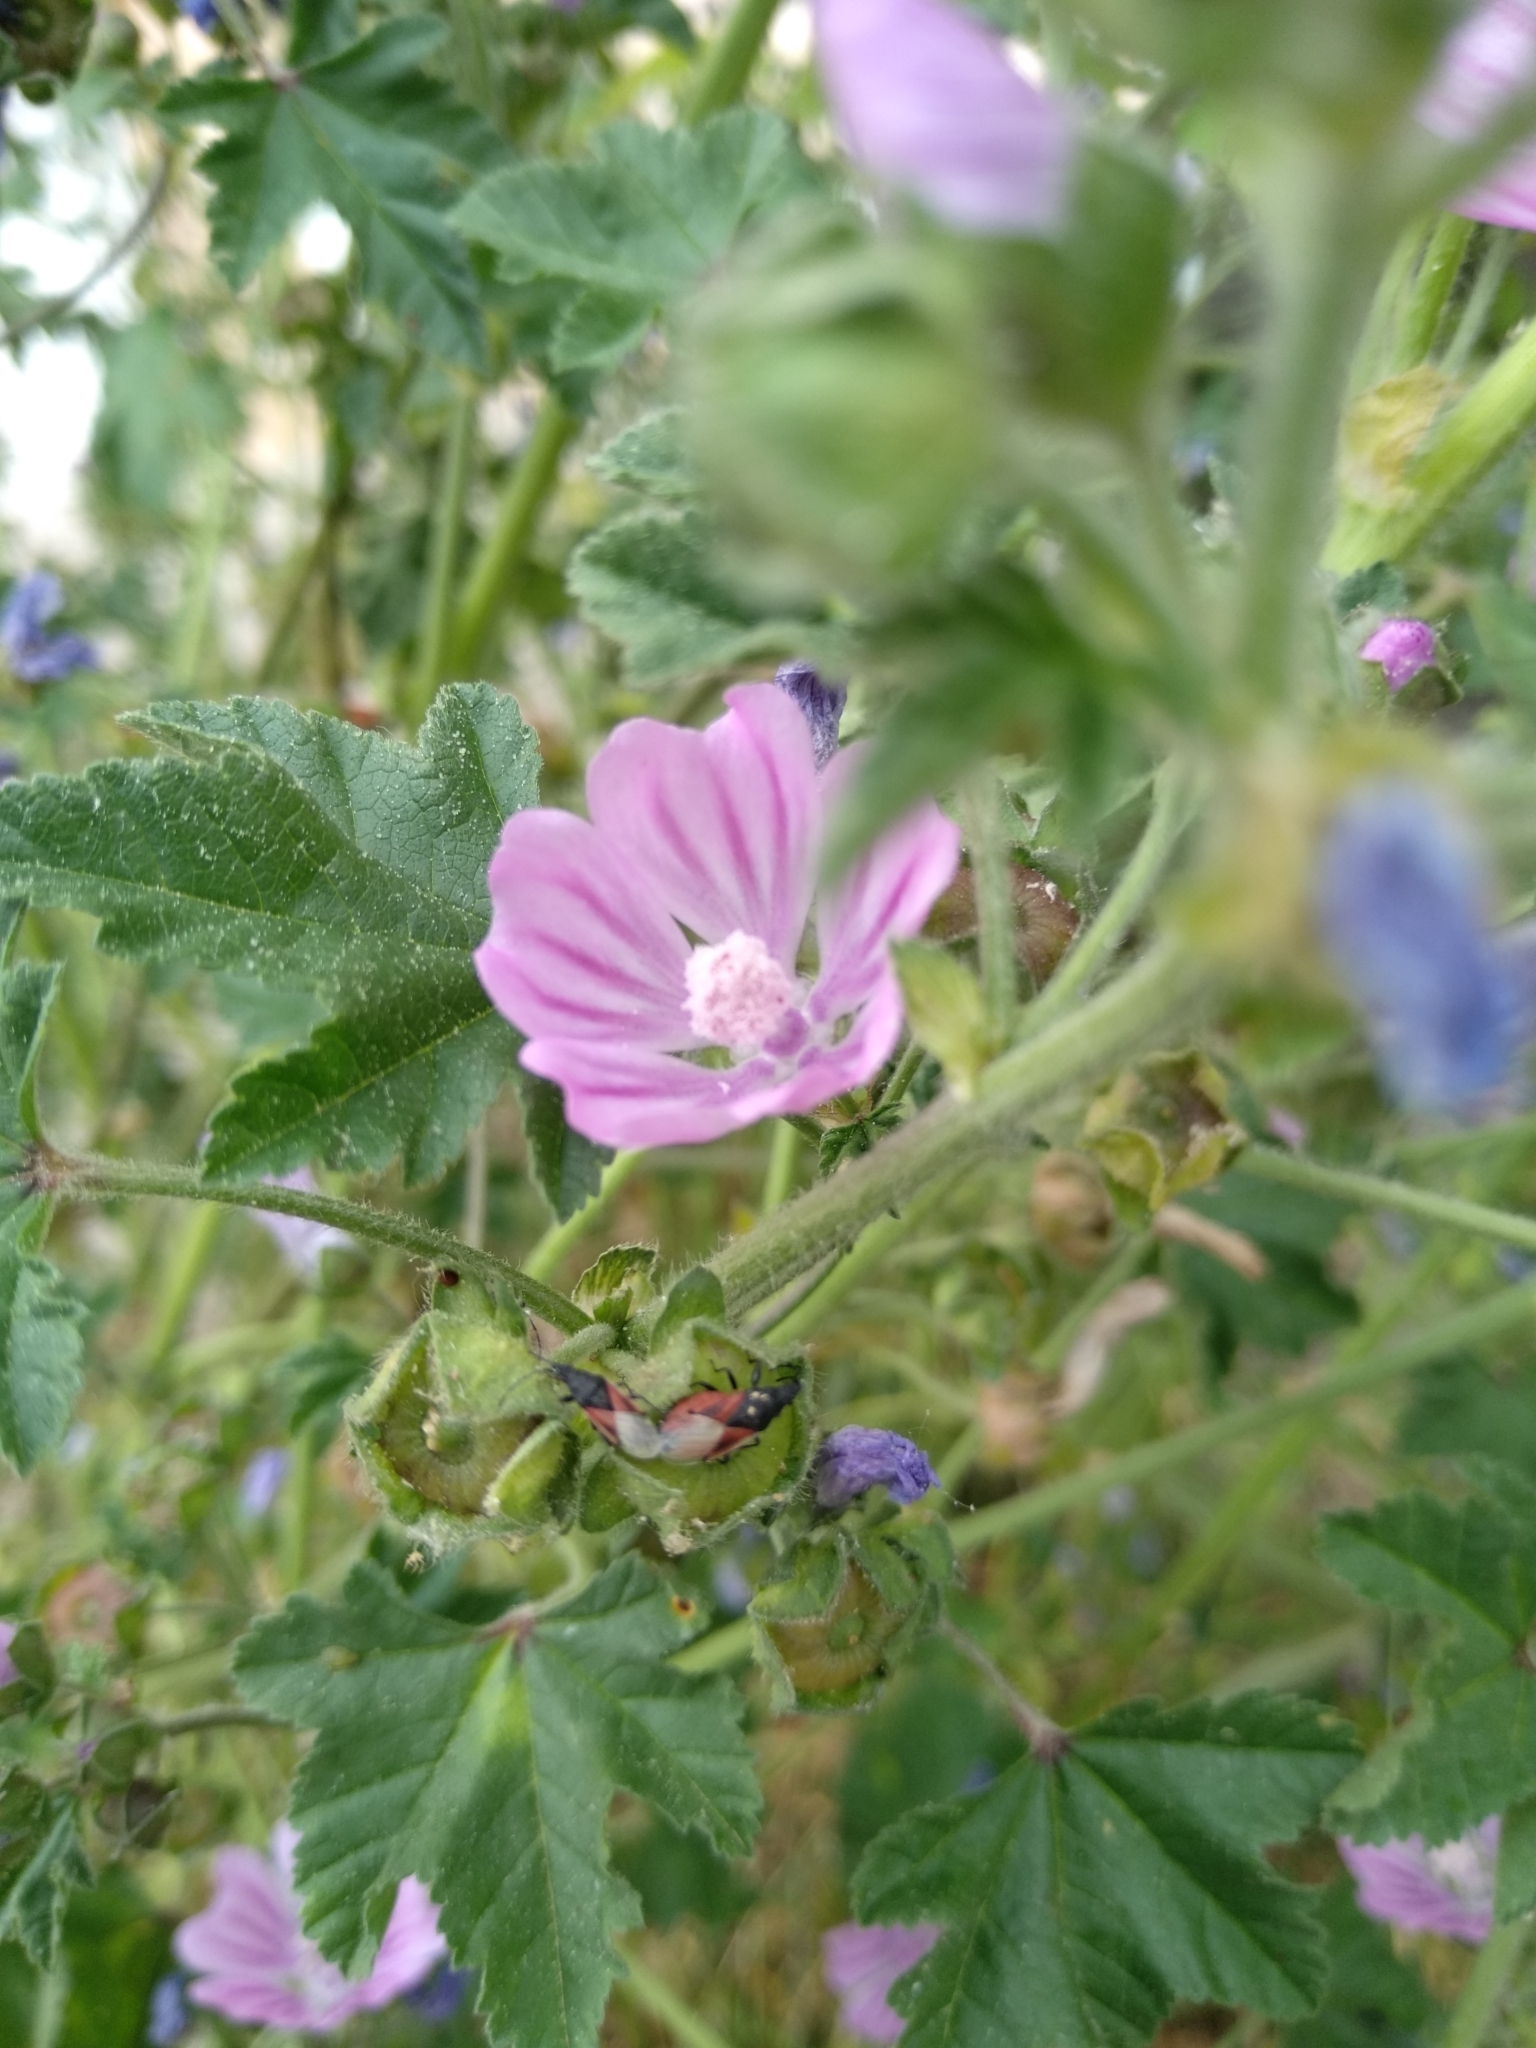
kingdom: Animalia
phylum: Arthropoda
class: Insecta
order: Hemiptera
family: Oxycarenidae
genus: Oxycarenus
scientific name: Oxycarenus lavaterae
